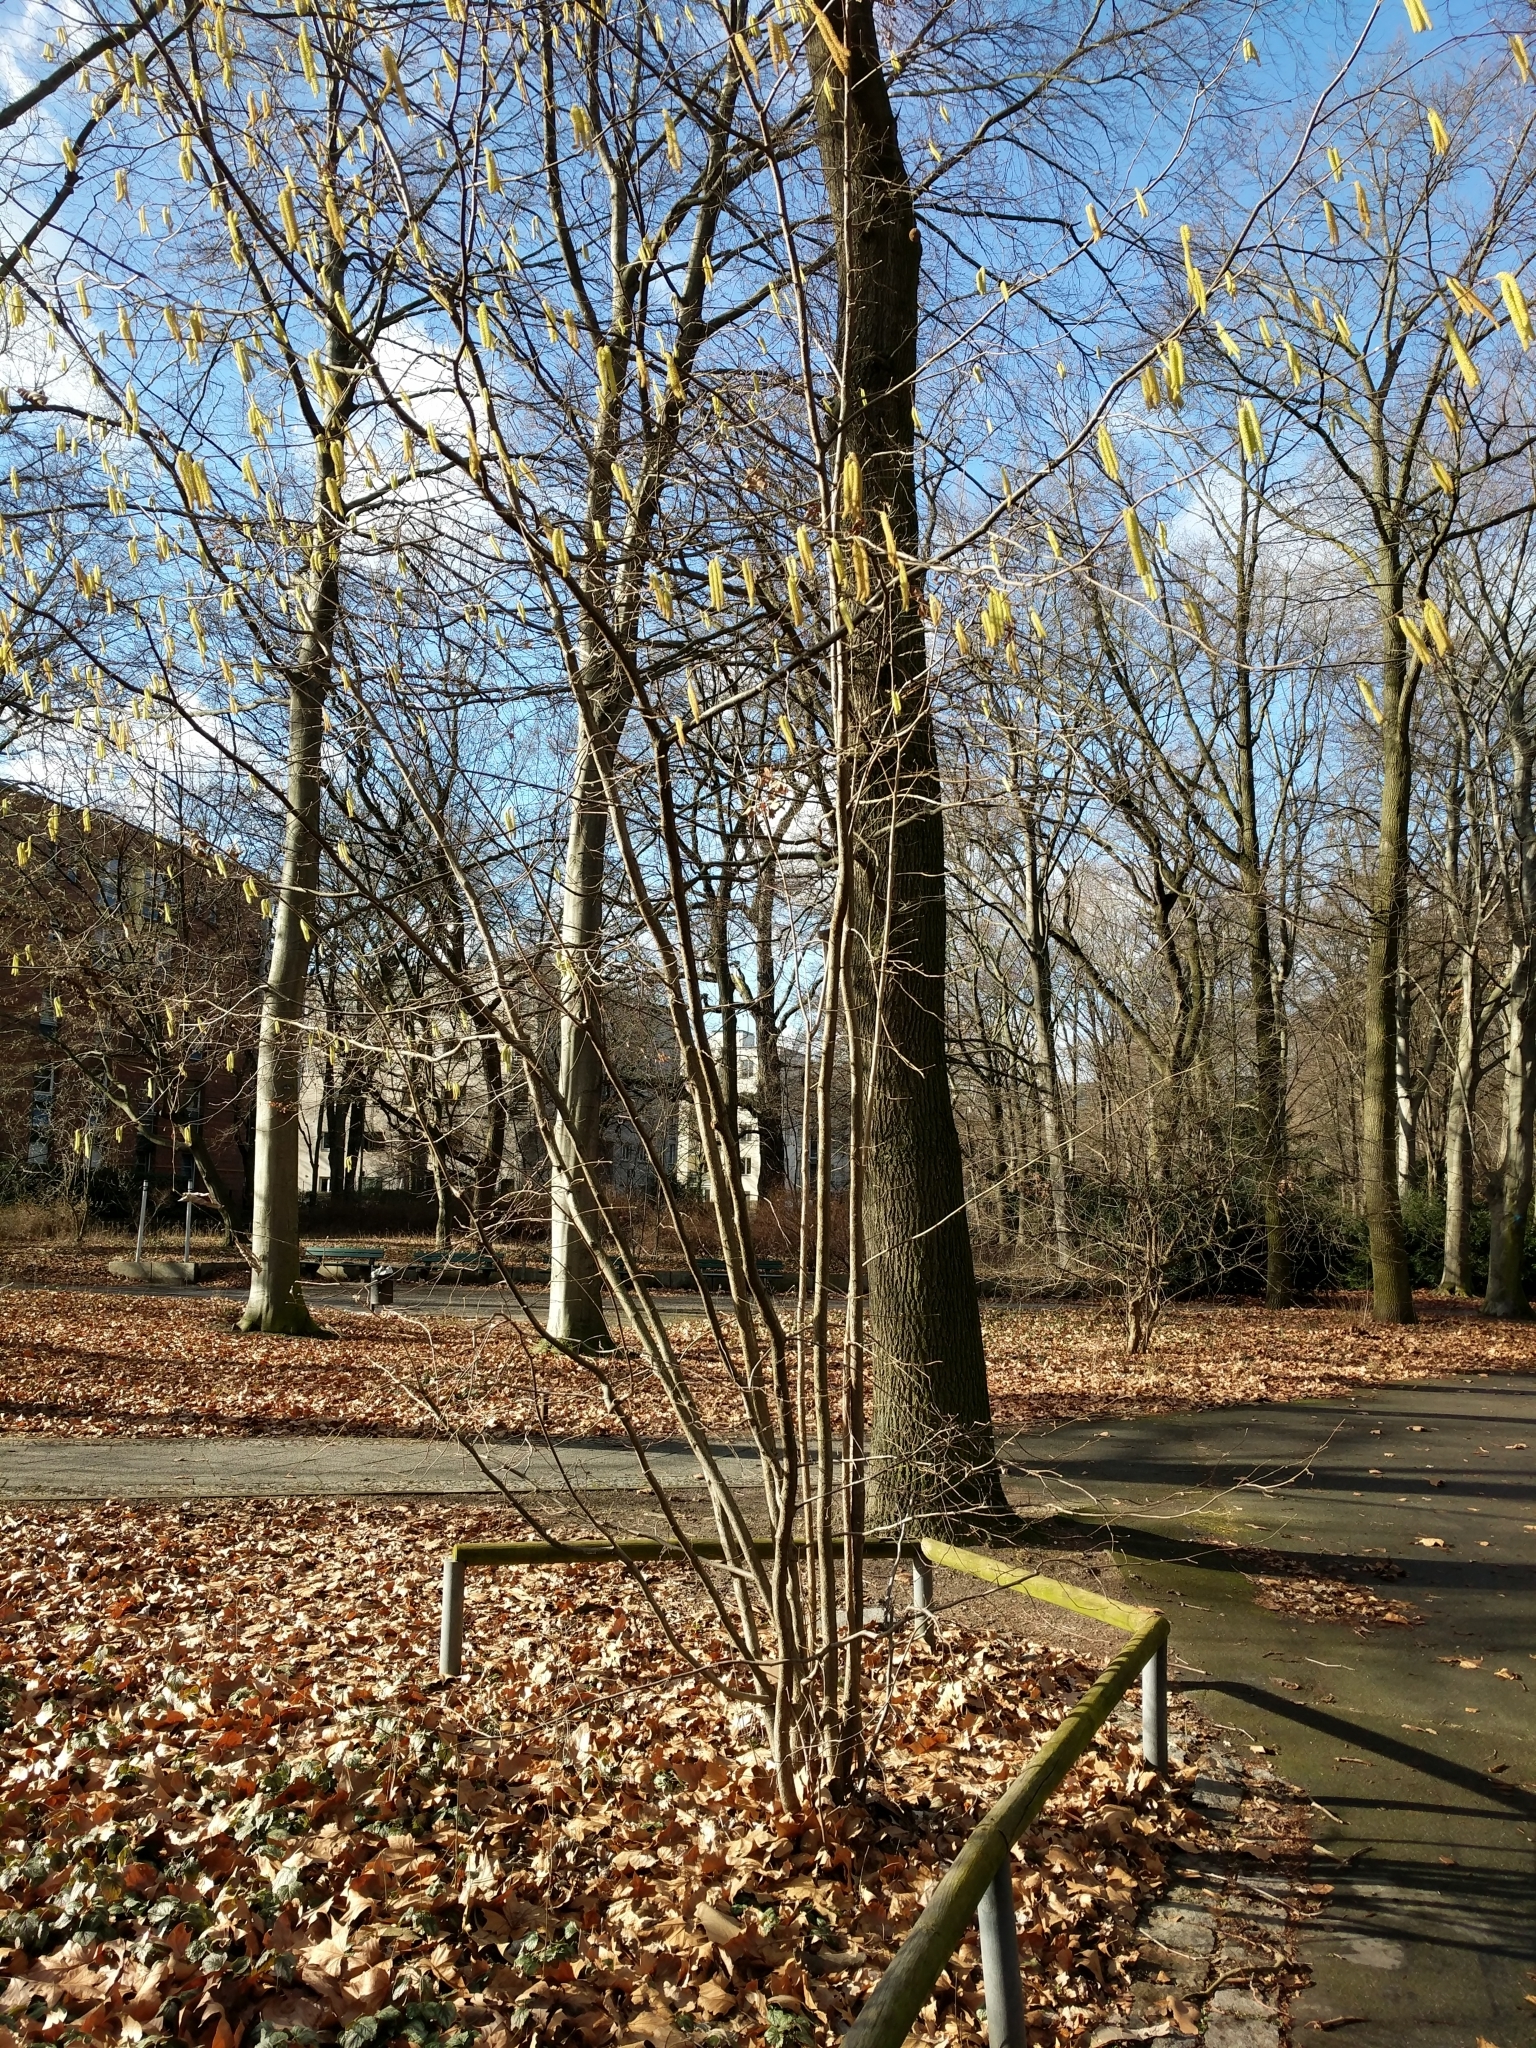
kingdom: Plantae
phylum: Tracheophyta
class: Magnoliopsida
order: Fagales
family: Betulaceae
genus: Corylus
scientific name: Corylus avellana
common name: European hazel
